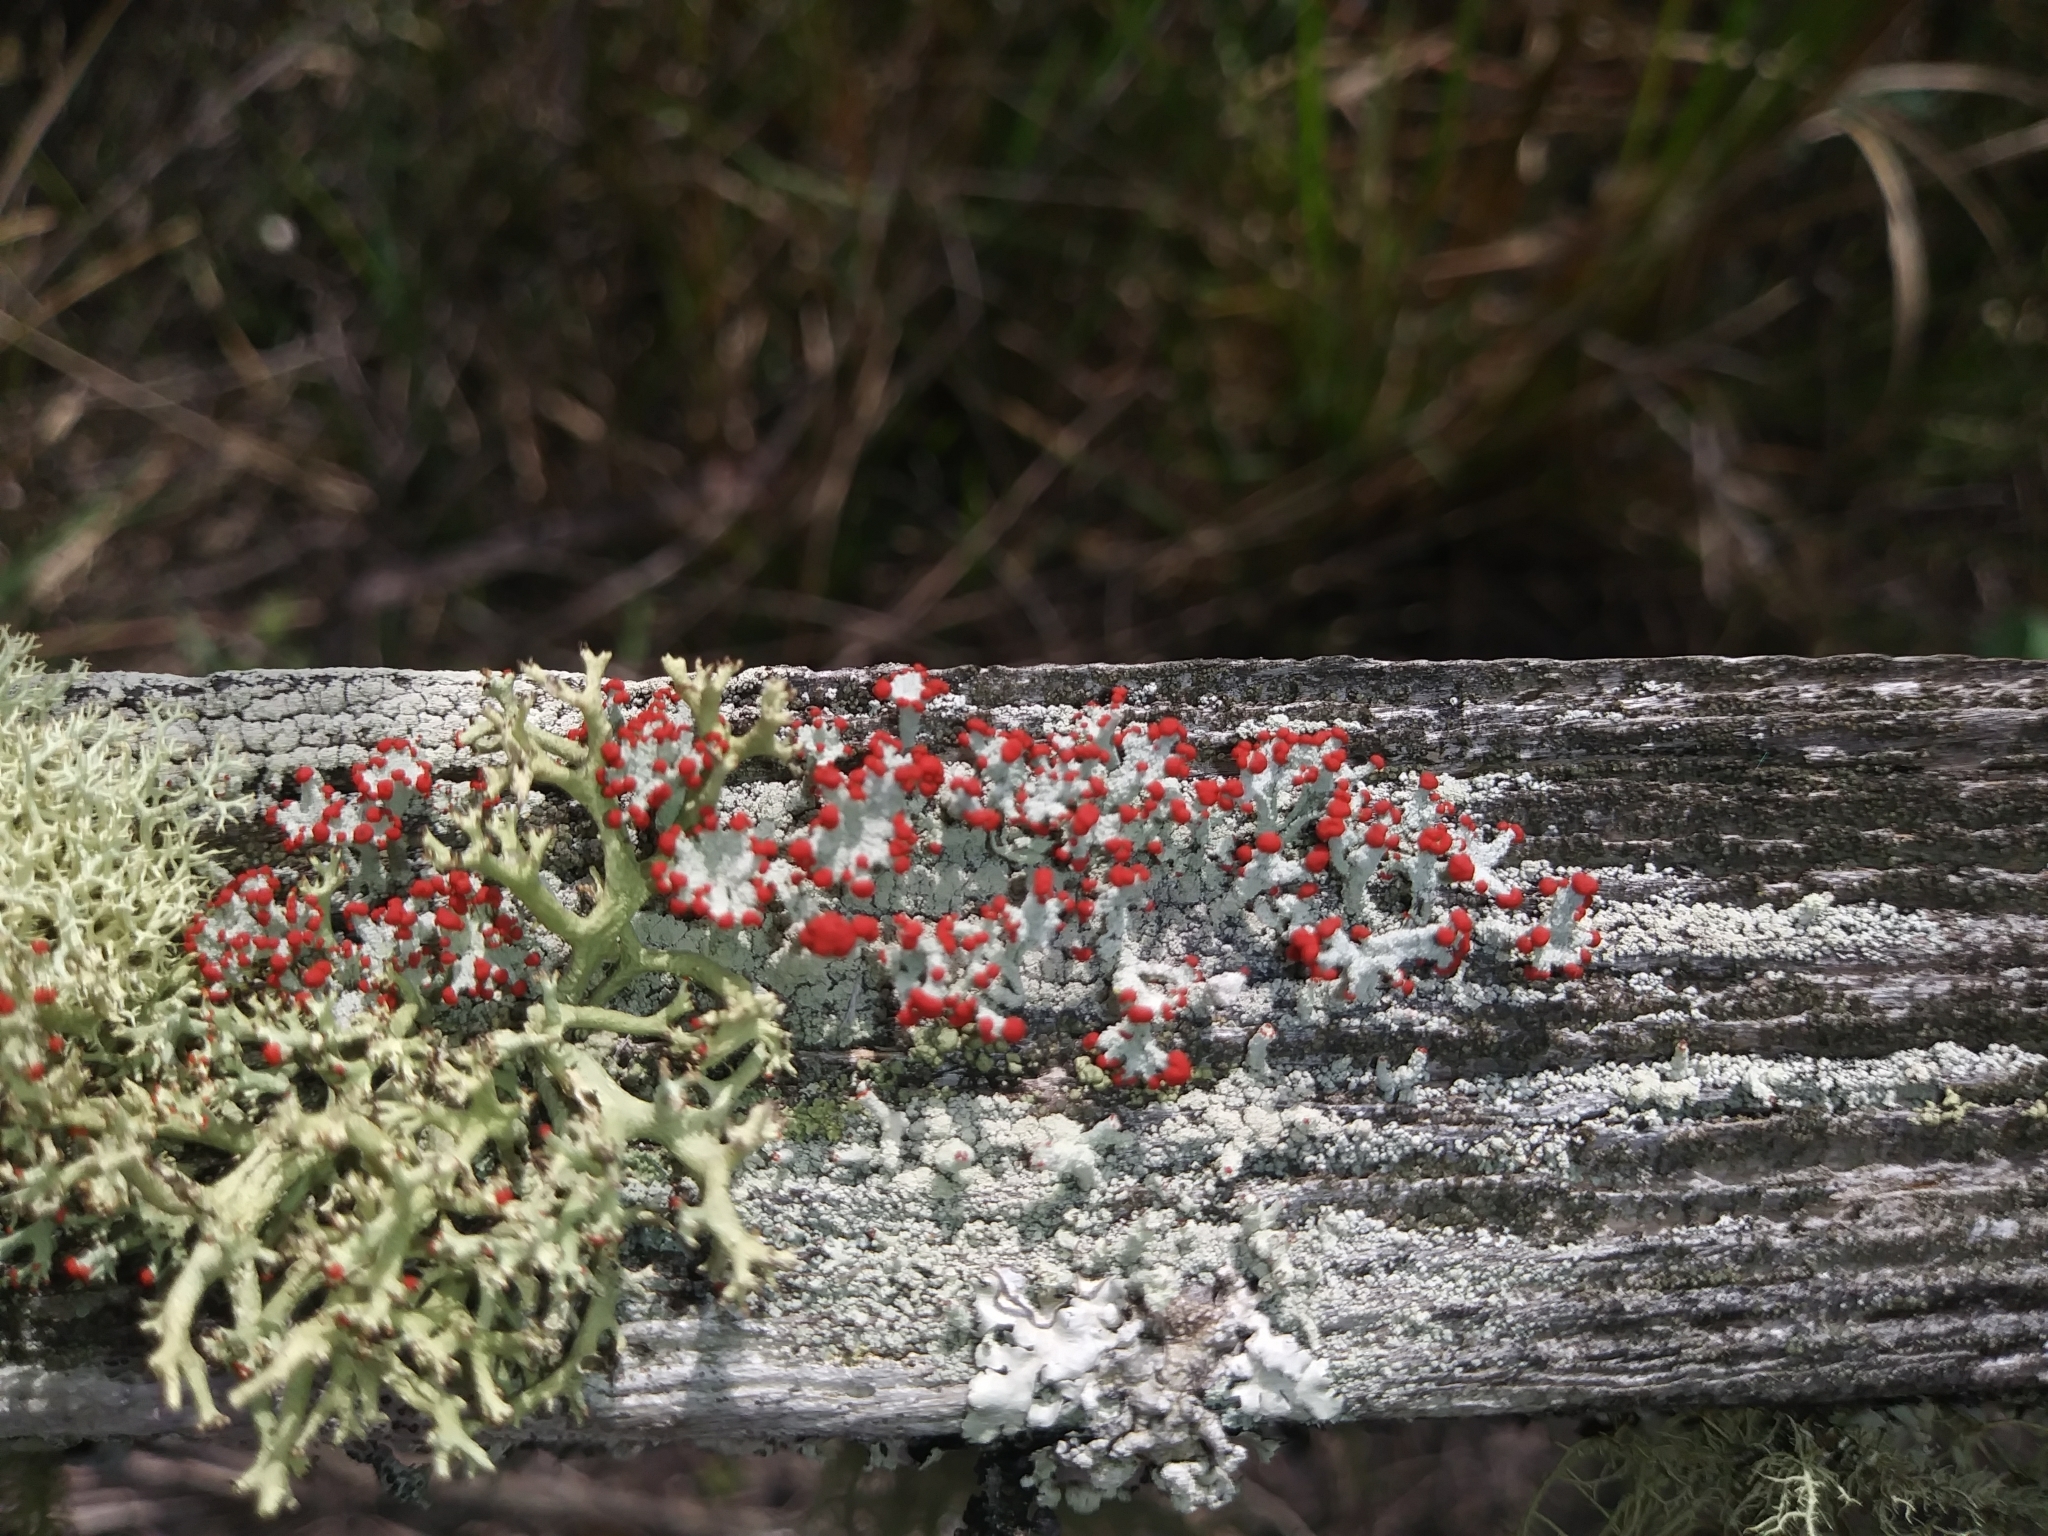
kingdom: Fungi
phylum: Ascomycota
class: Lecanoromycetes
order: Lecanorales
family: Cladoniaceae
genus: Cladonia
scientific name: Cladonia ravenelii
